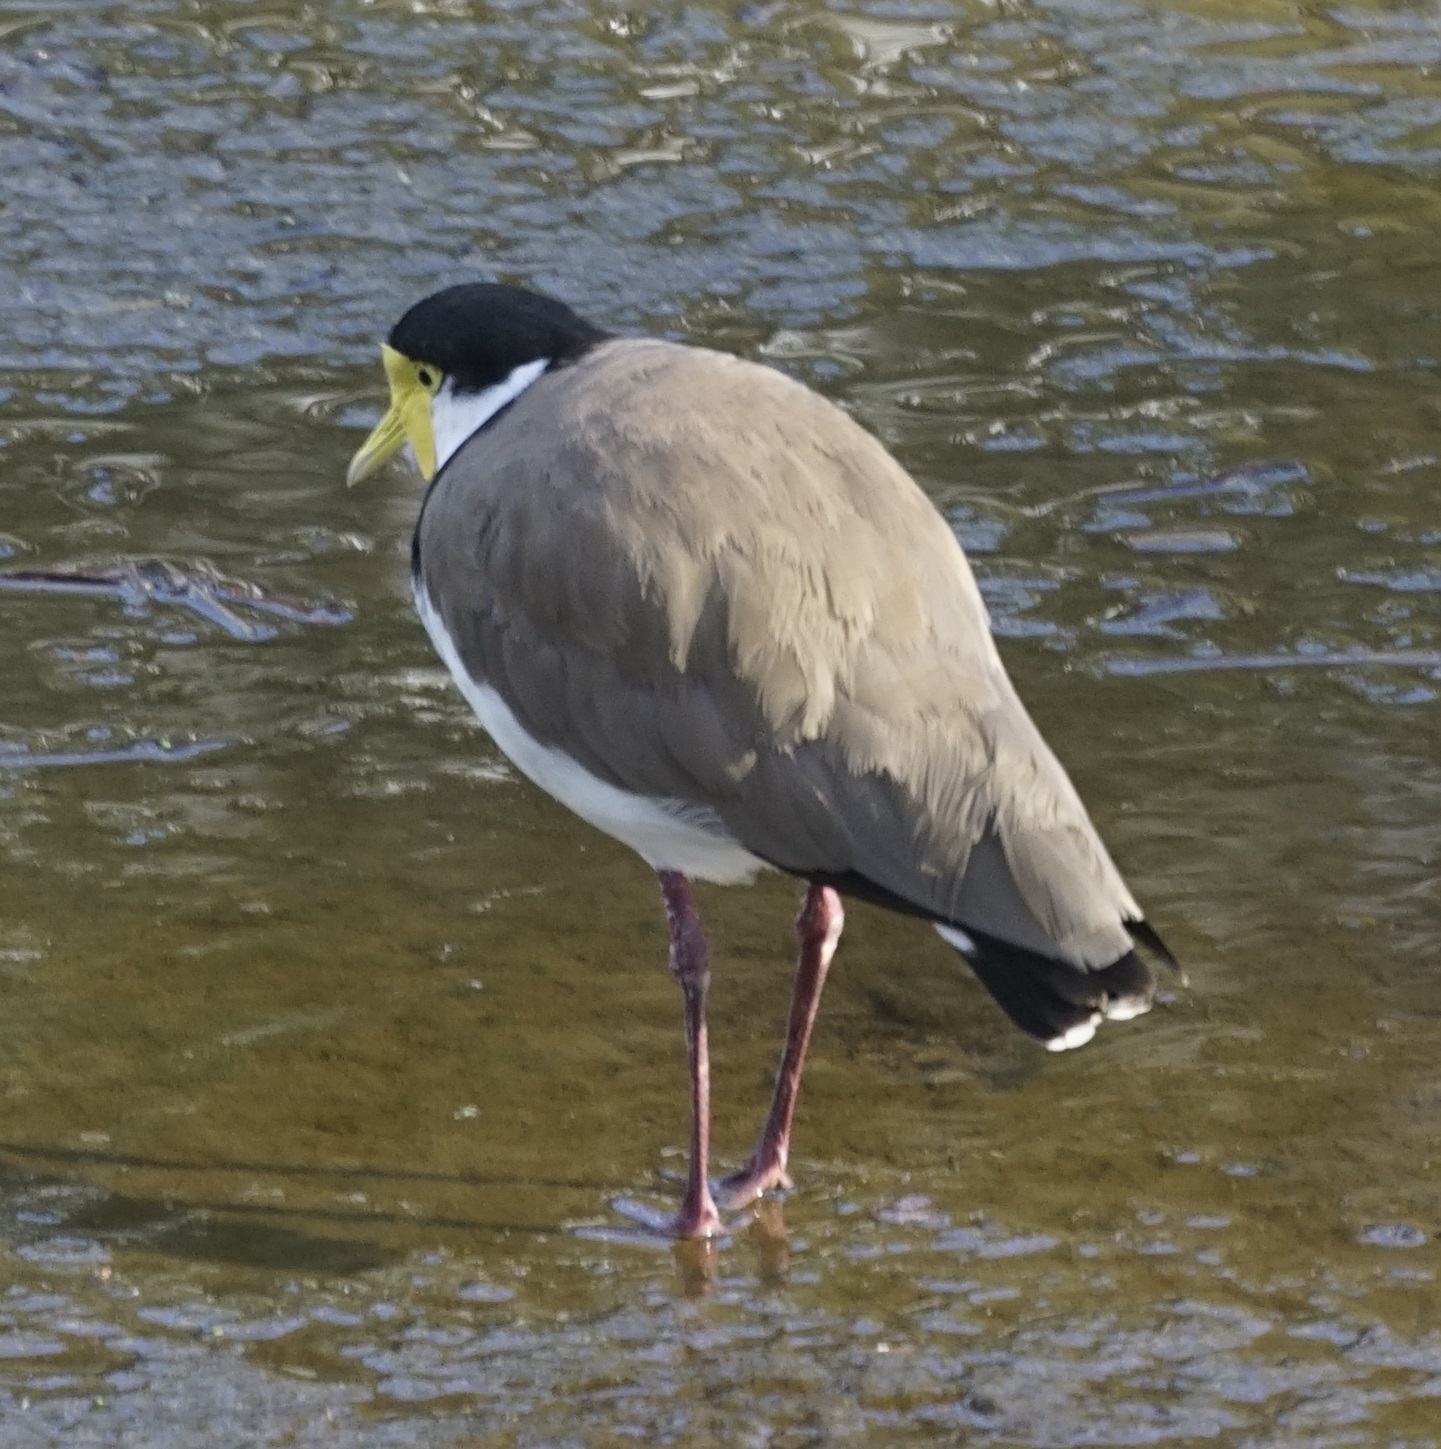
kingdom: Animalia
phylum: Chordata
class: Aves
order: Charadriiformes
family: Charadriidae
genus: Vanellus
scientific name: Vanellus miles
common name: Masked lapwing
